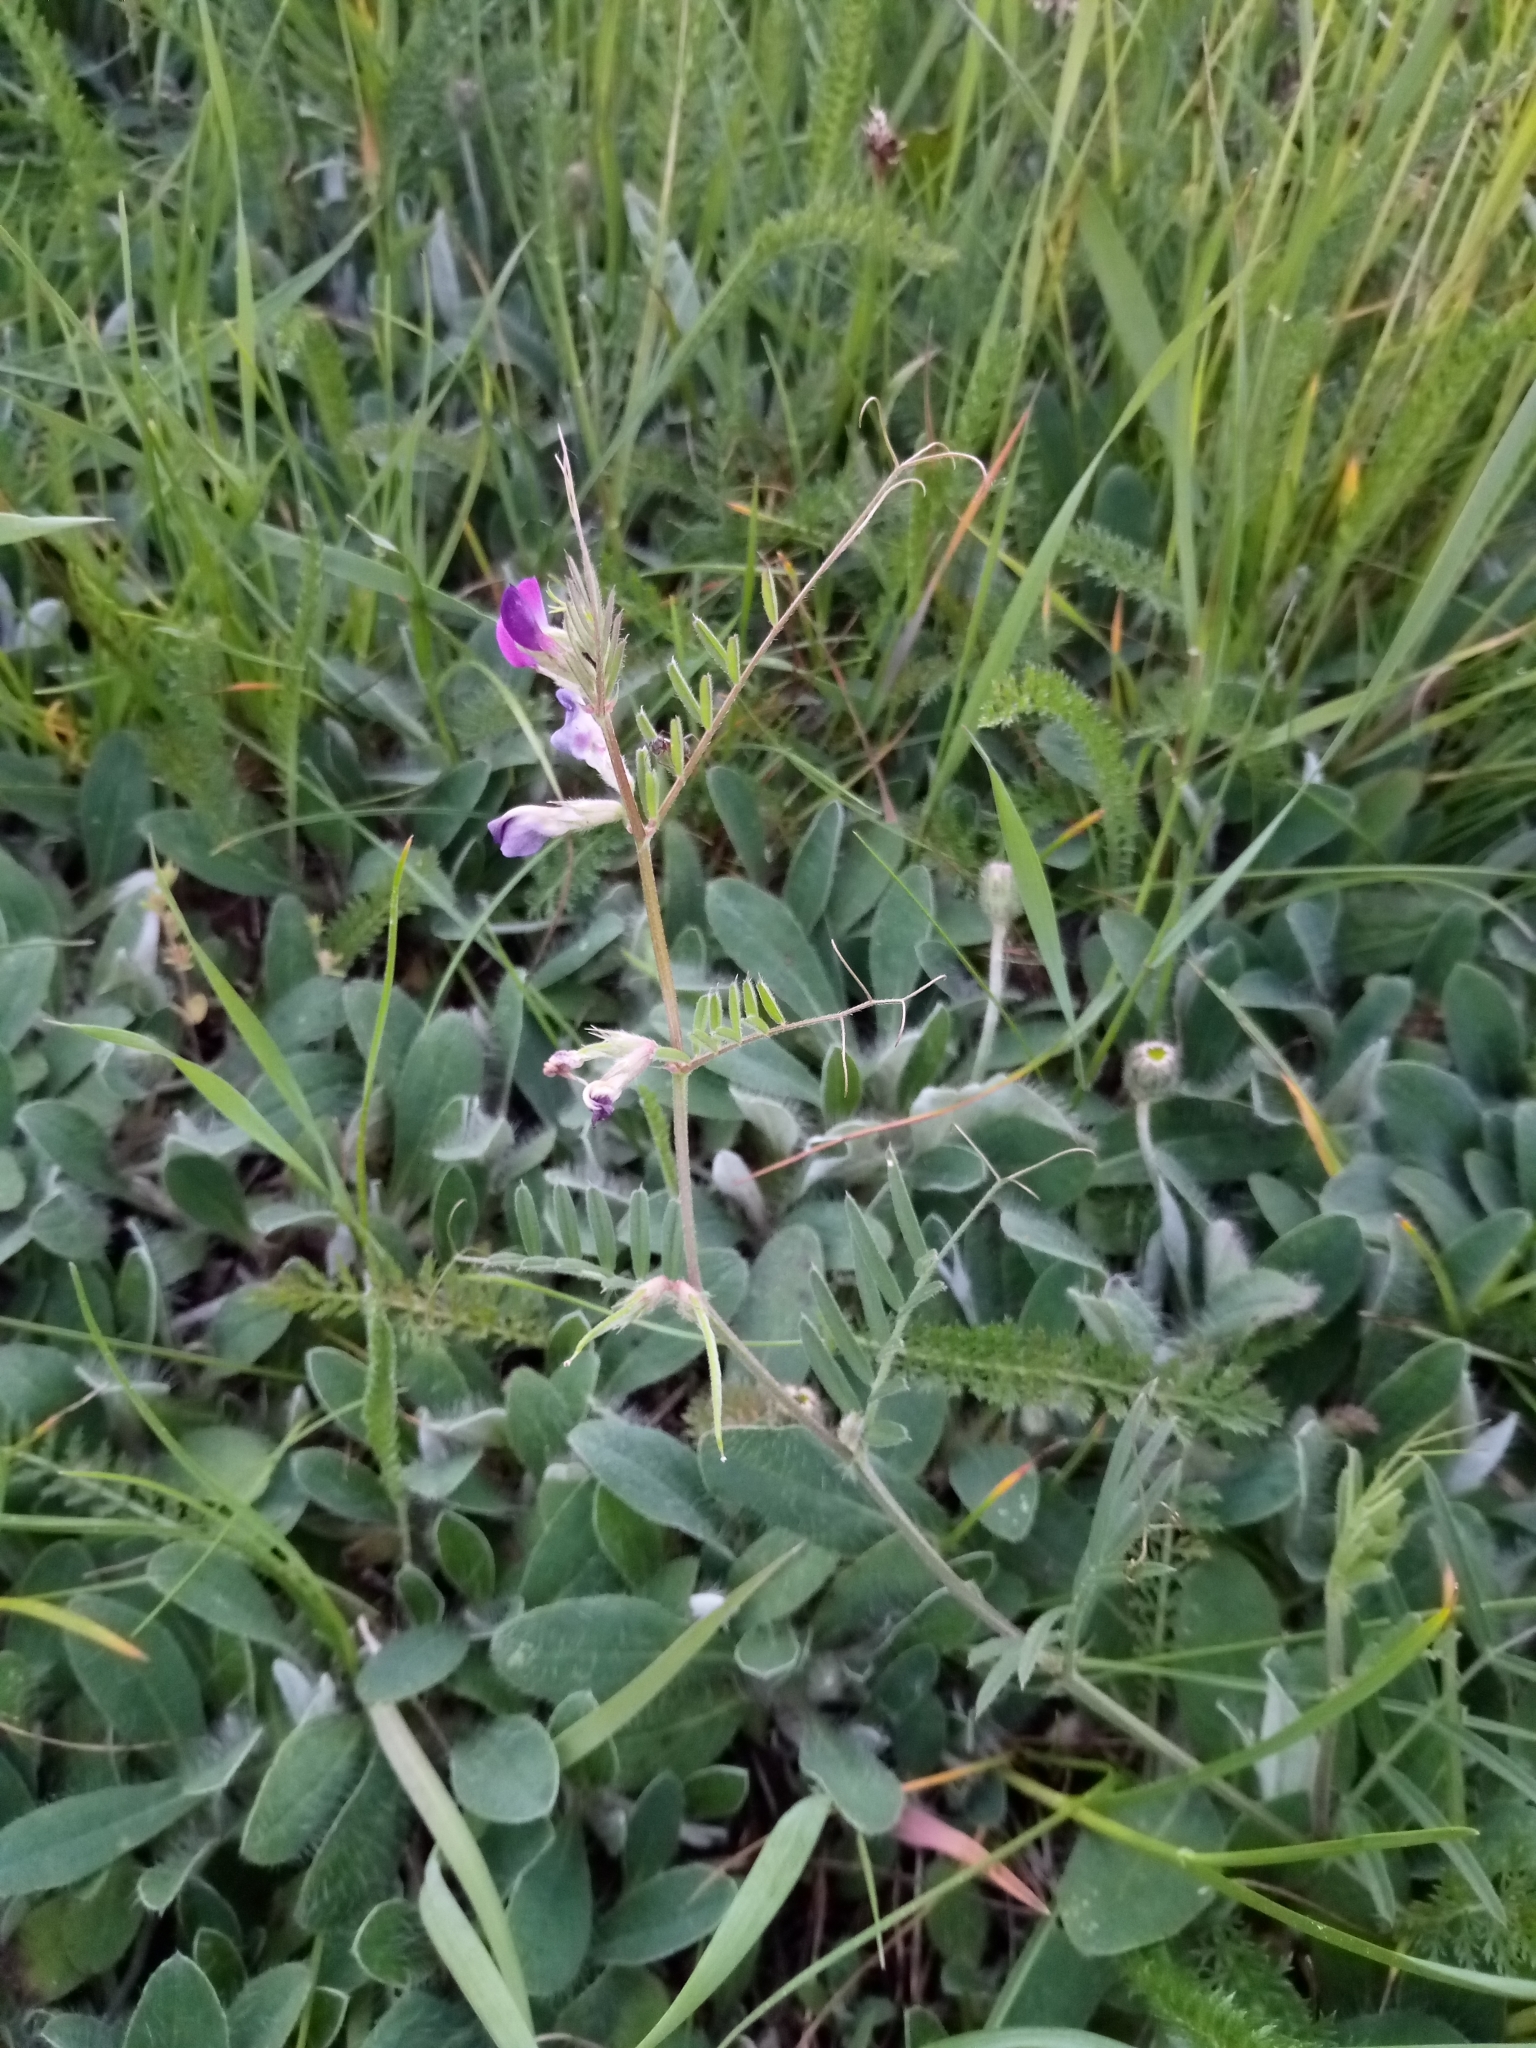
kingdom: Plantae
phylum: Tracheophyta
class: Magnoliopsida
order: Fabales
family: Fabaceae
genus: Vicia
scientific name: Vicia sativa
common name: Garden vetch
